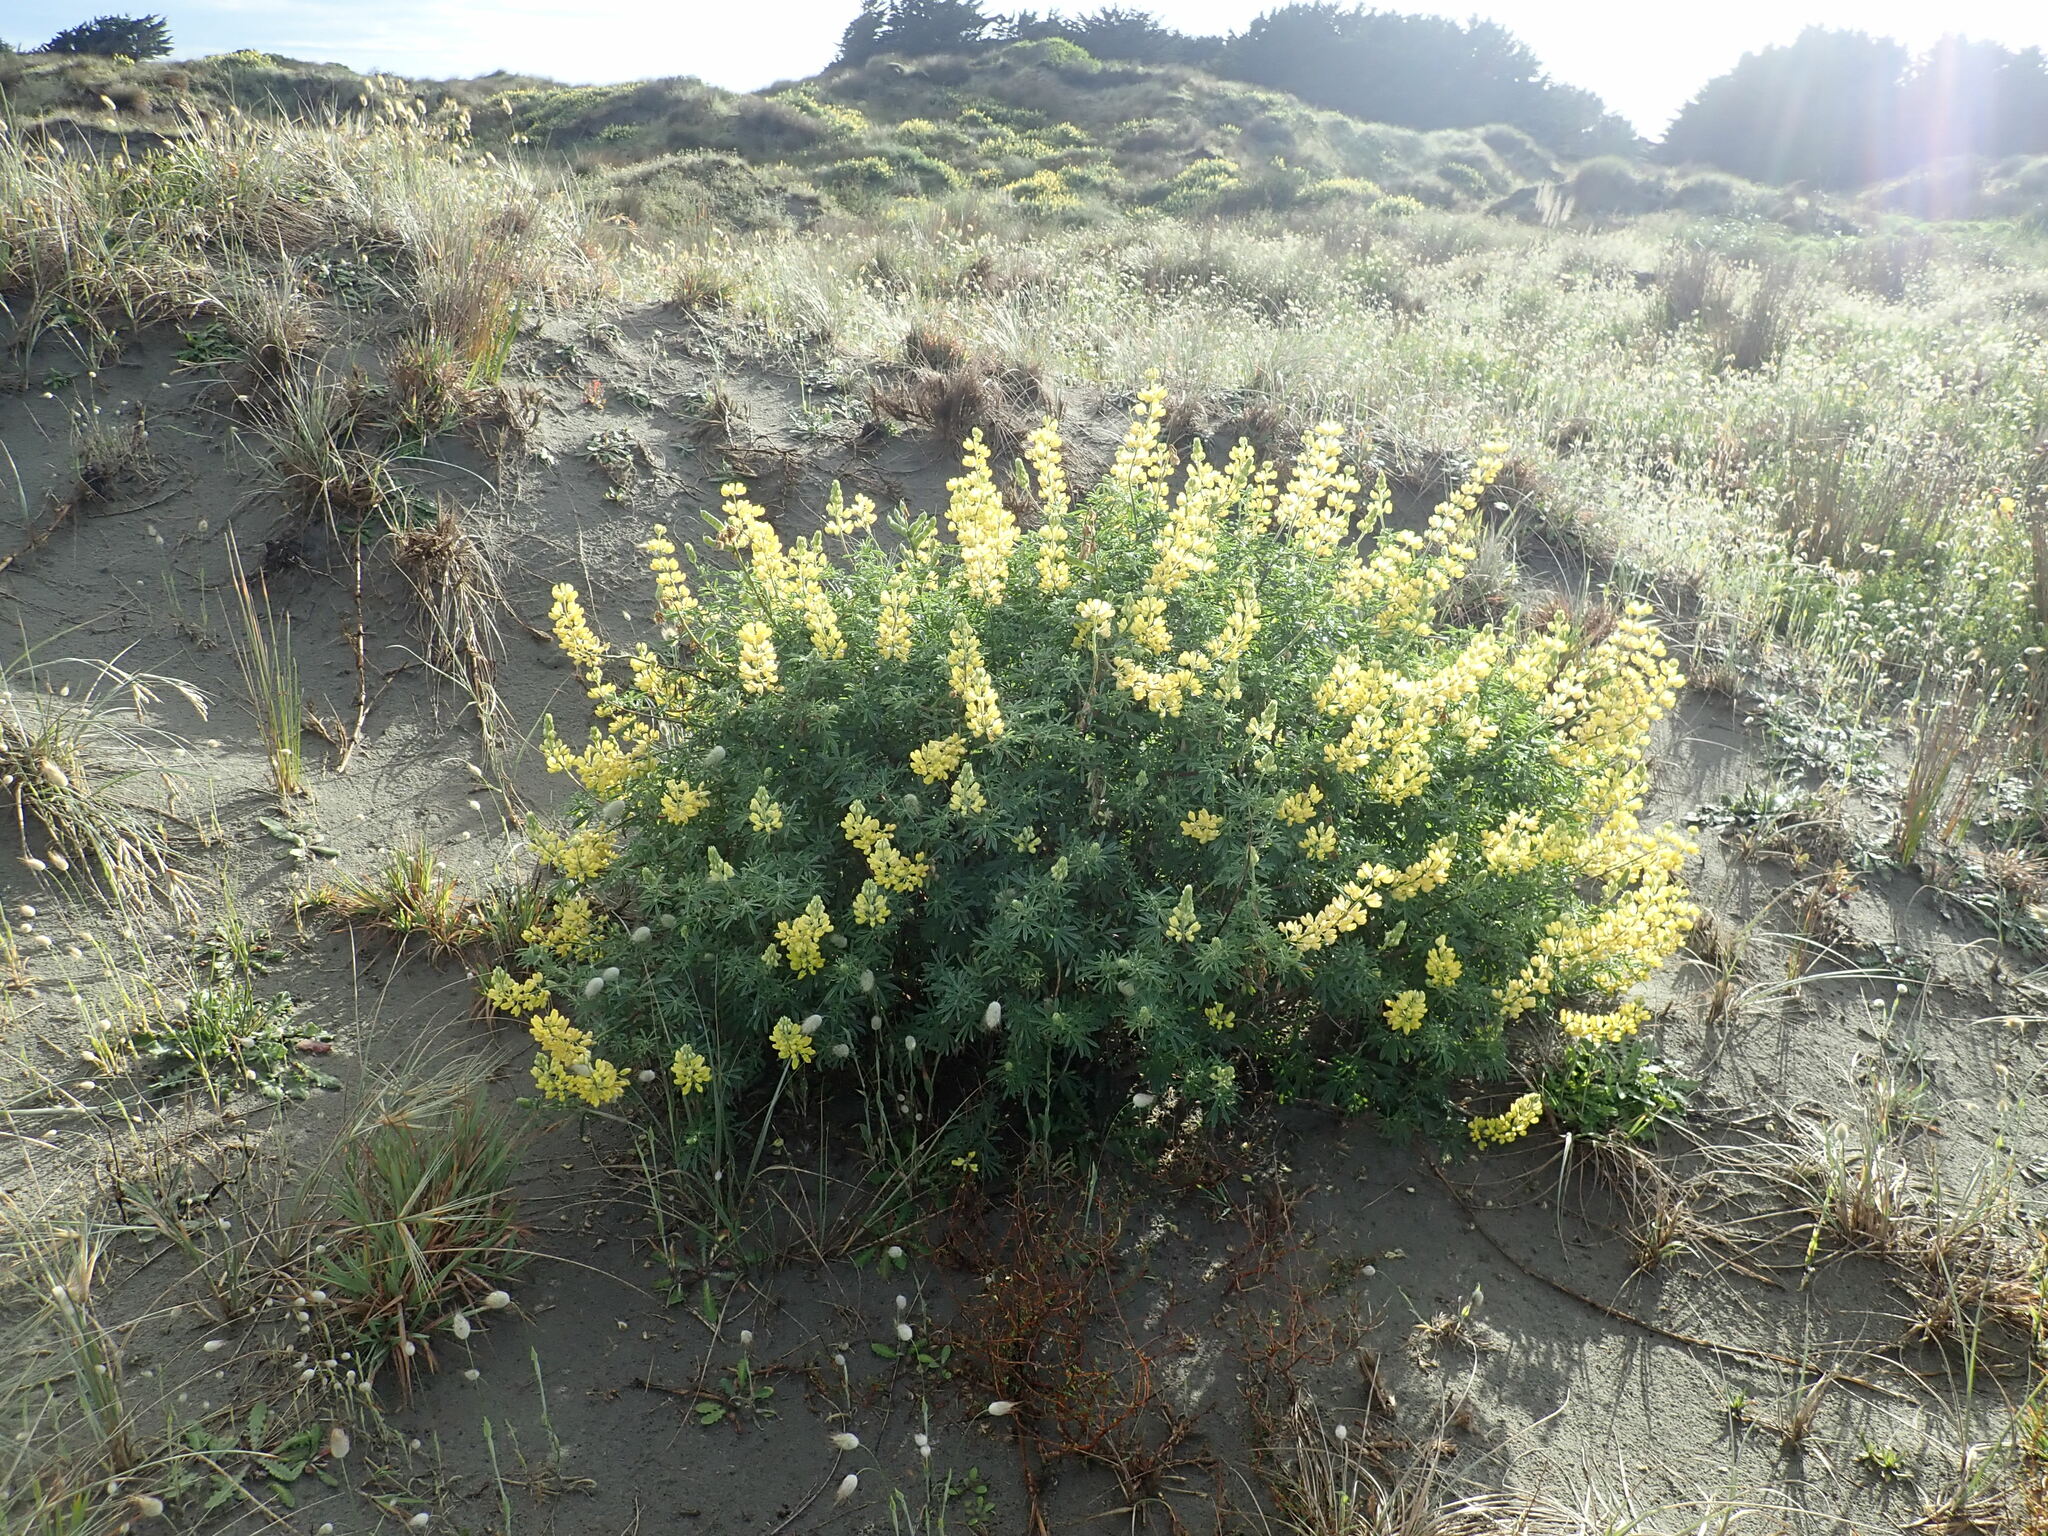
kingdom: Plantae
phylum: Tracheophyta
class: Magnoliopsida
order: Fabales
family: Fabaceae
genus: Lupinus
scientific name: Lupinus arboreus
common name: Yellow bush lupine
